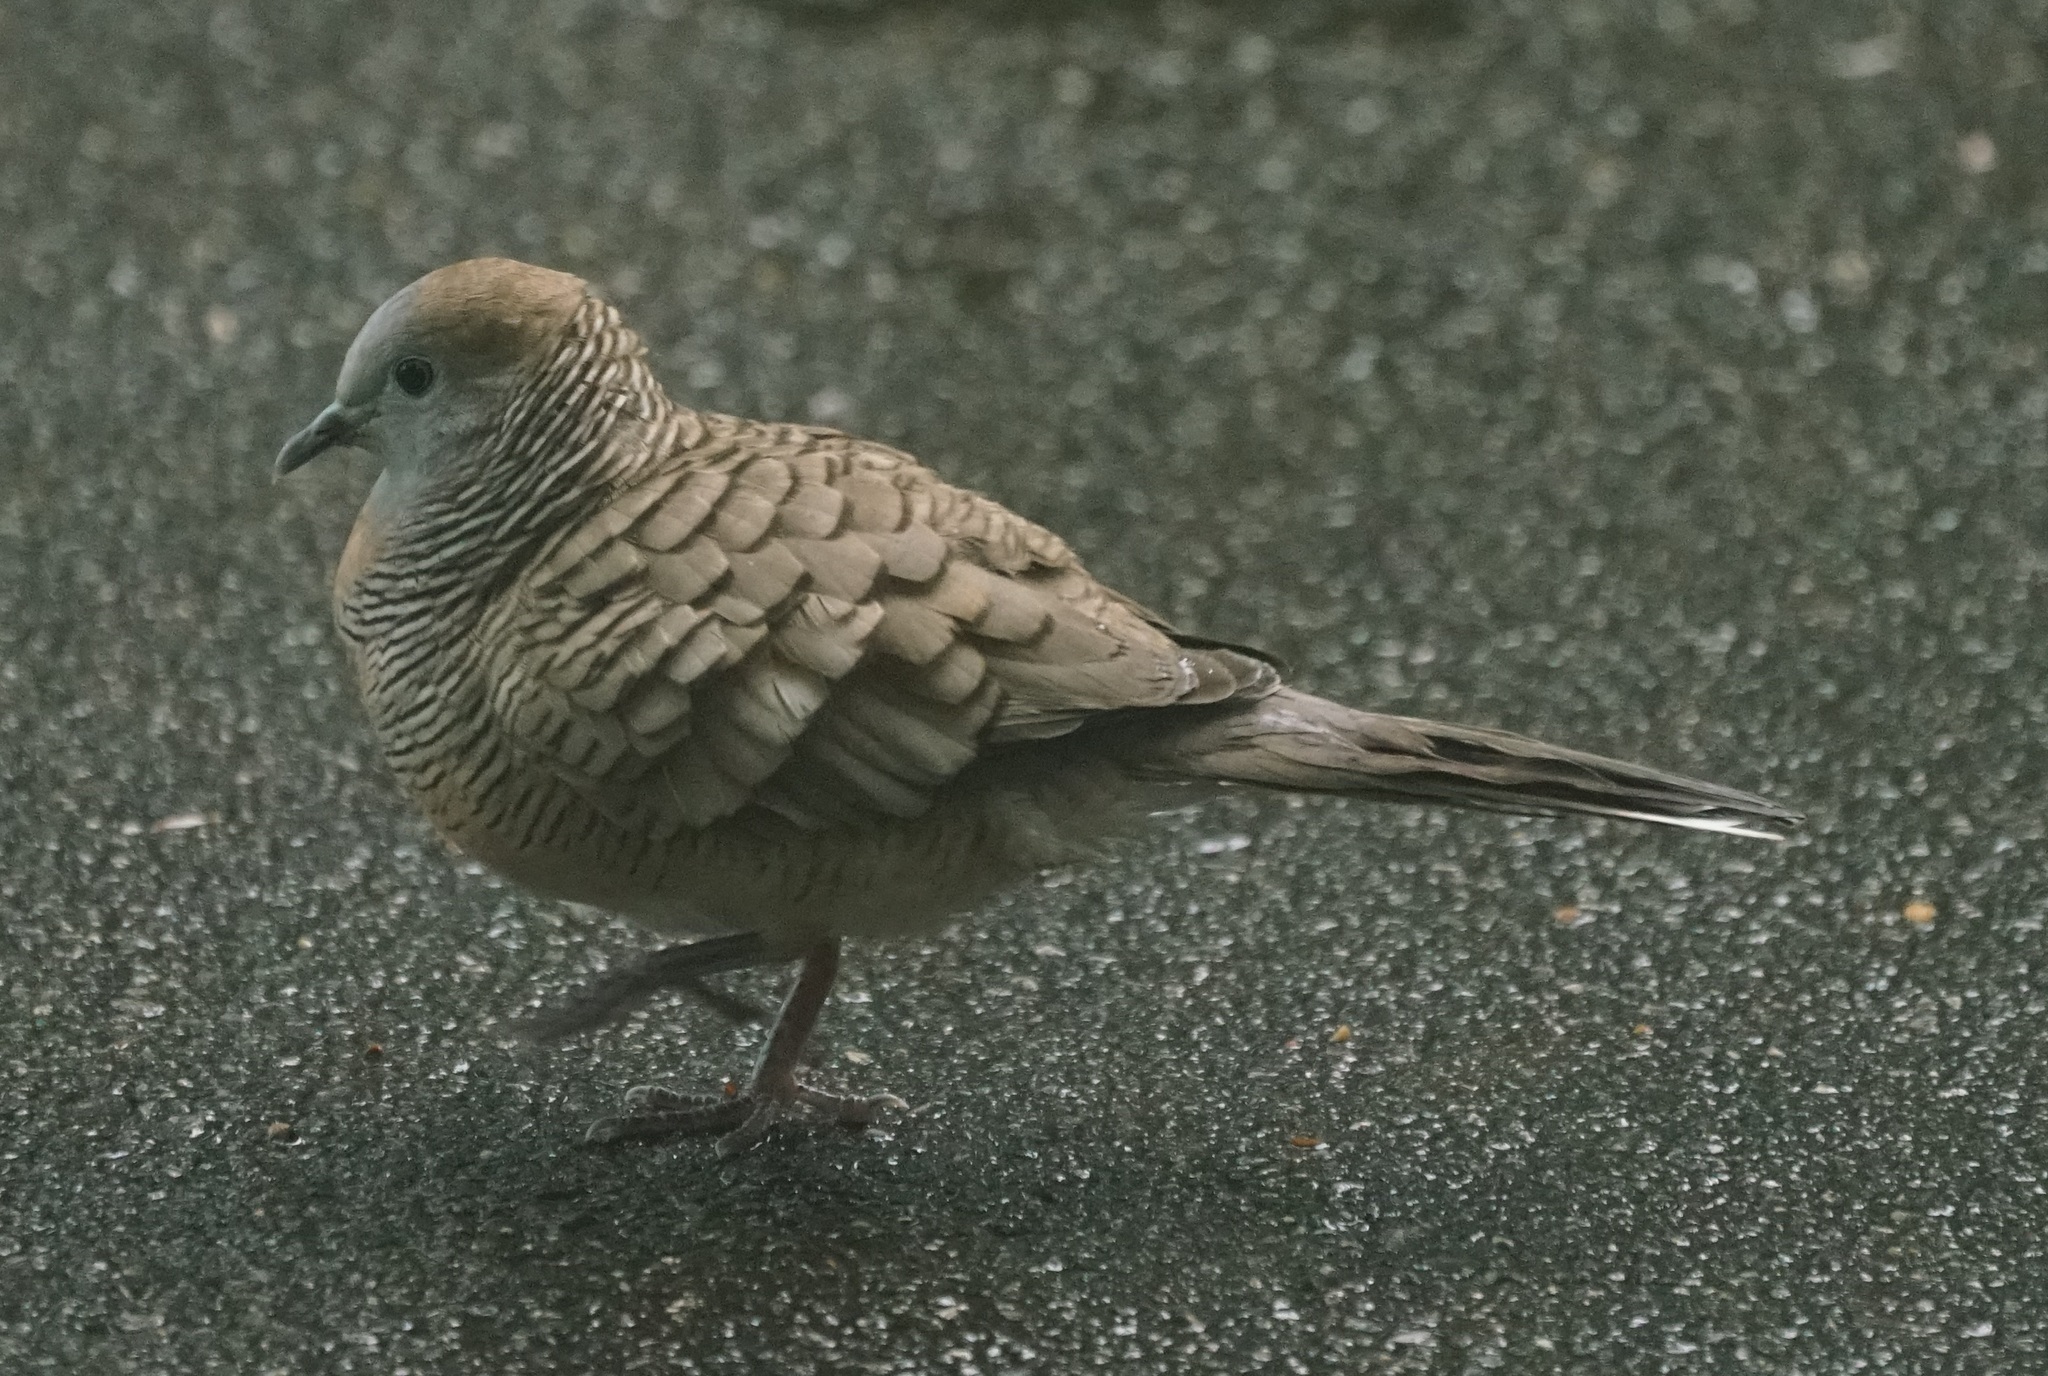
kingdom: Animalia
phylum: Chordata
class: Aves
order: Columbiformes
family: Columbidae
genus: Geopelia
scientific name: Geopelia striata
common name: Zebra dove
